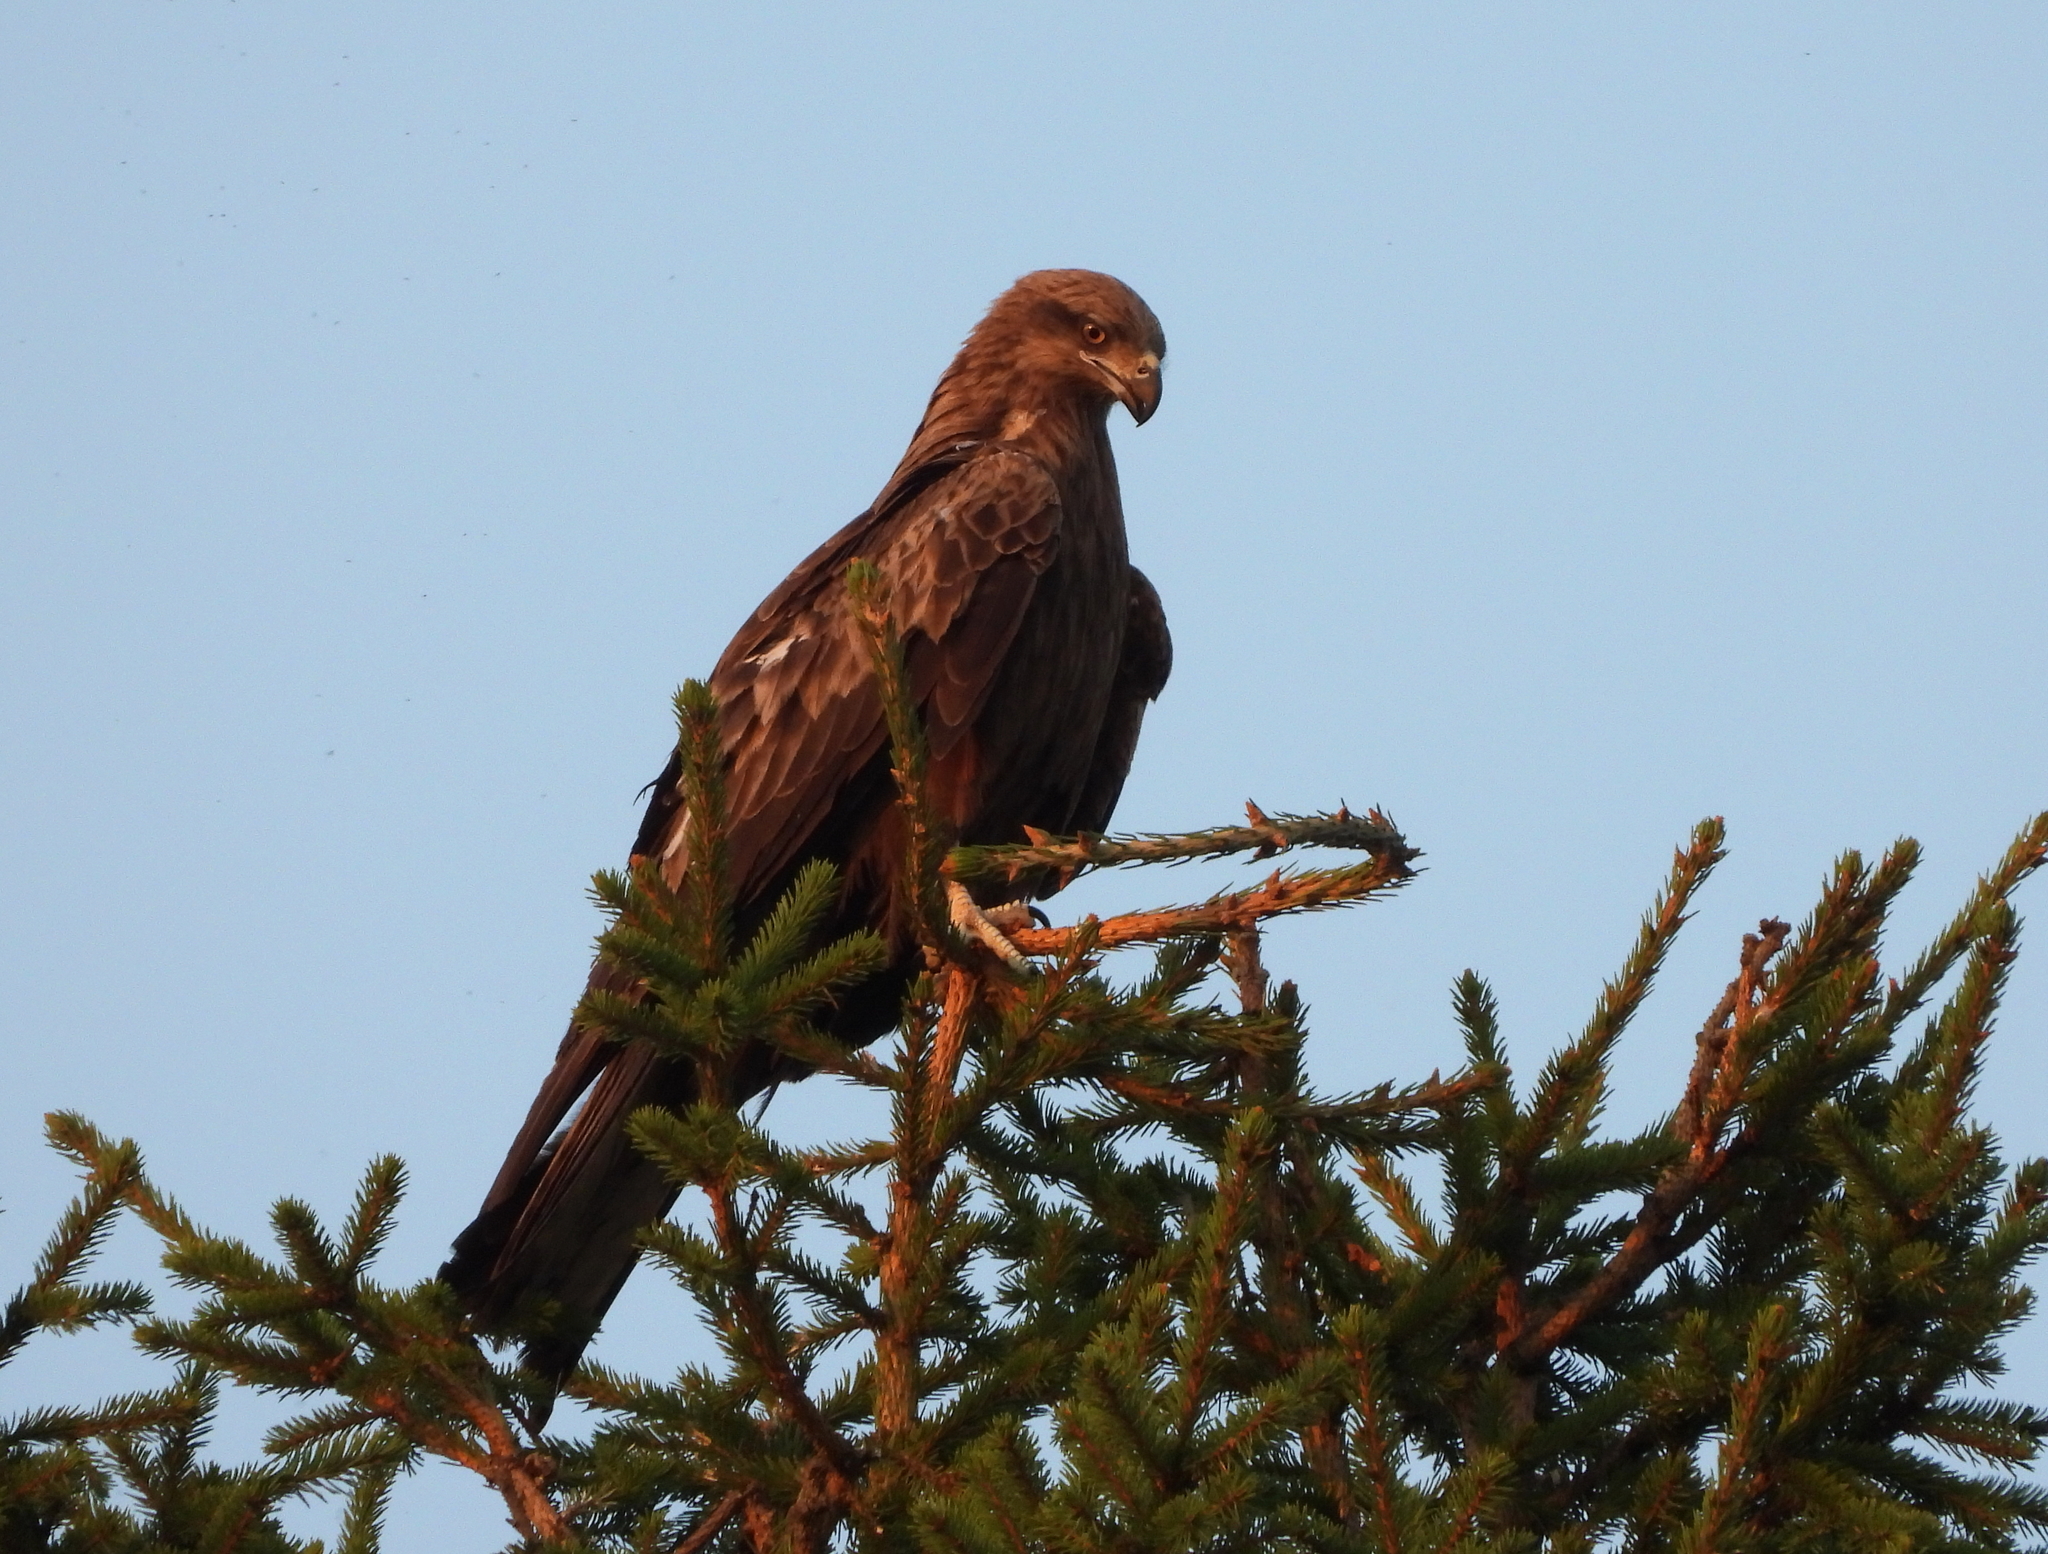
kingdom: Animalia
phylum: Chordata
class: Aves
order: Accipitriformes
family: Accipitridae
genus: Milvus
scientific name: Milvus migrans
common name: Black kite
